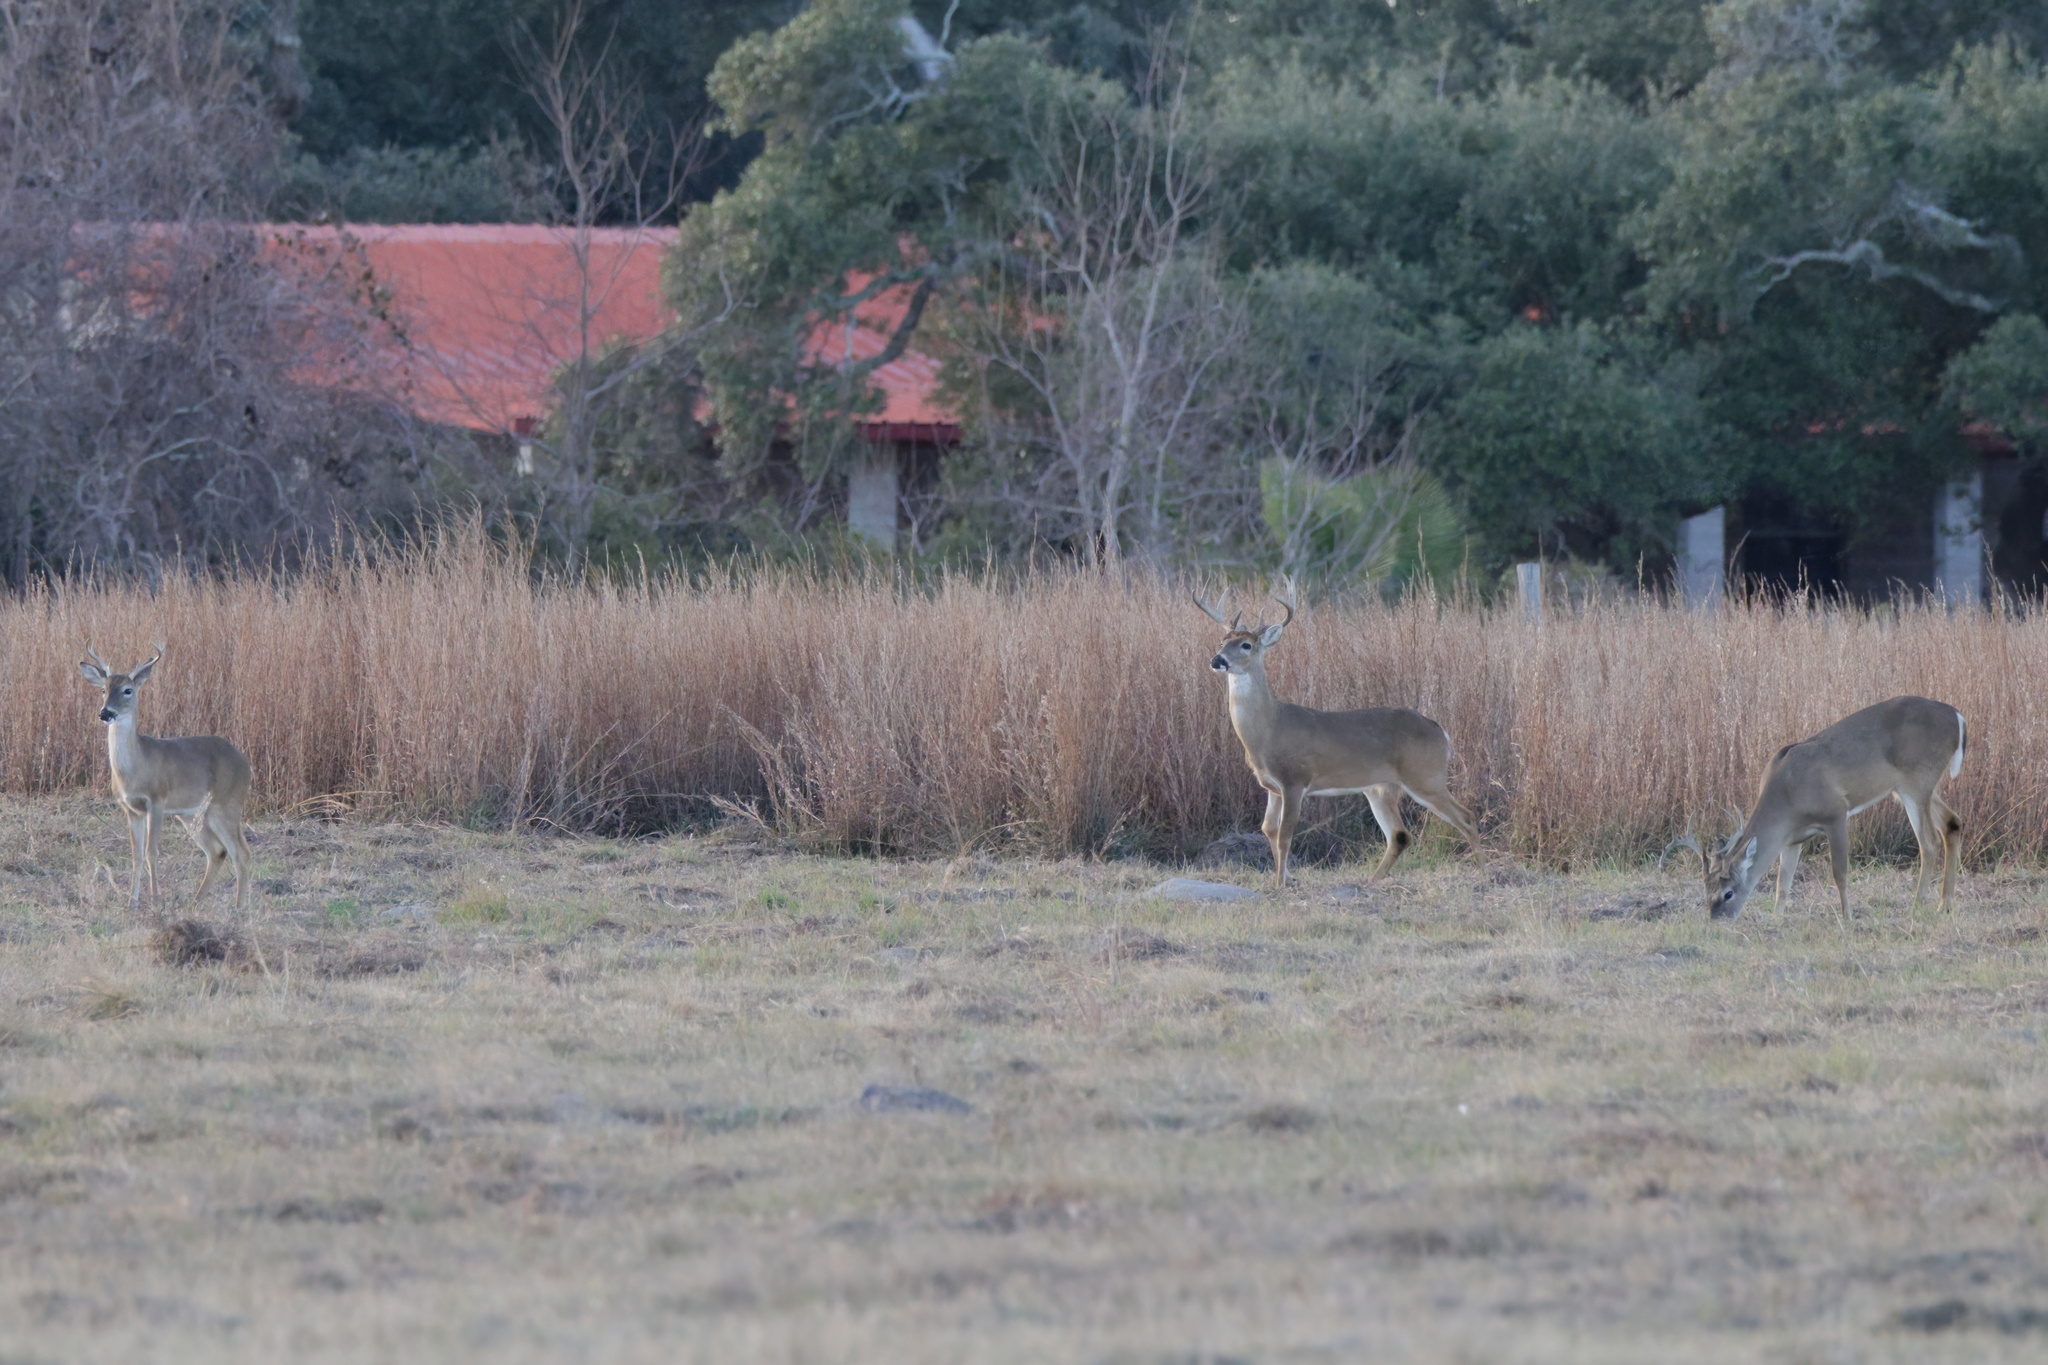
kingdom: Animalia
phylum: Chordata
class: Mammalia
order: Artiodactyla
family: Cervidae
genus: Odocoileus
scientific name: Odocoileus virginianus
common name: White-tailed deer
